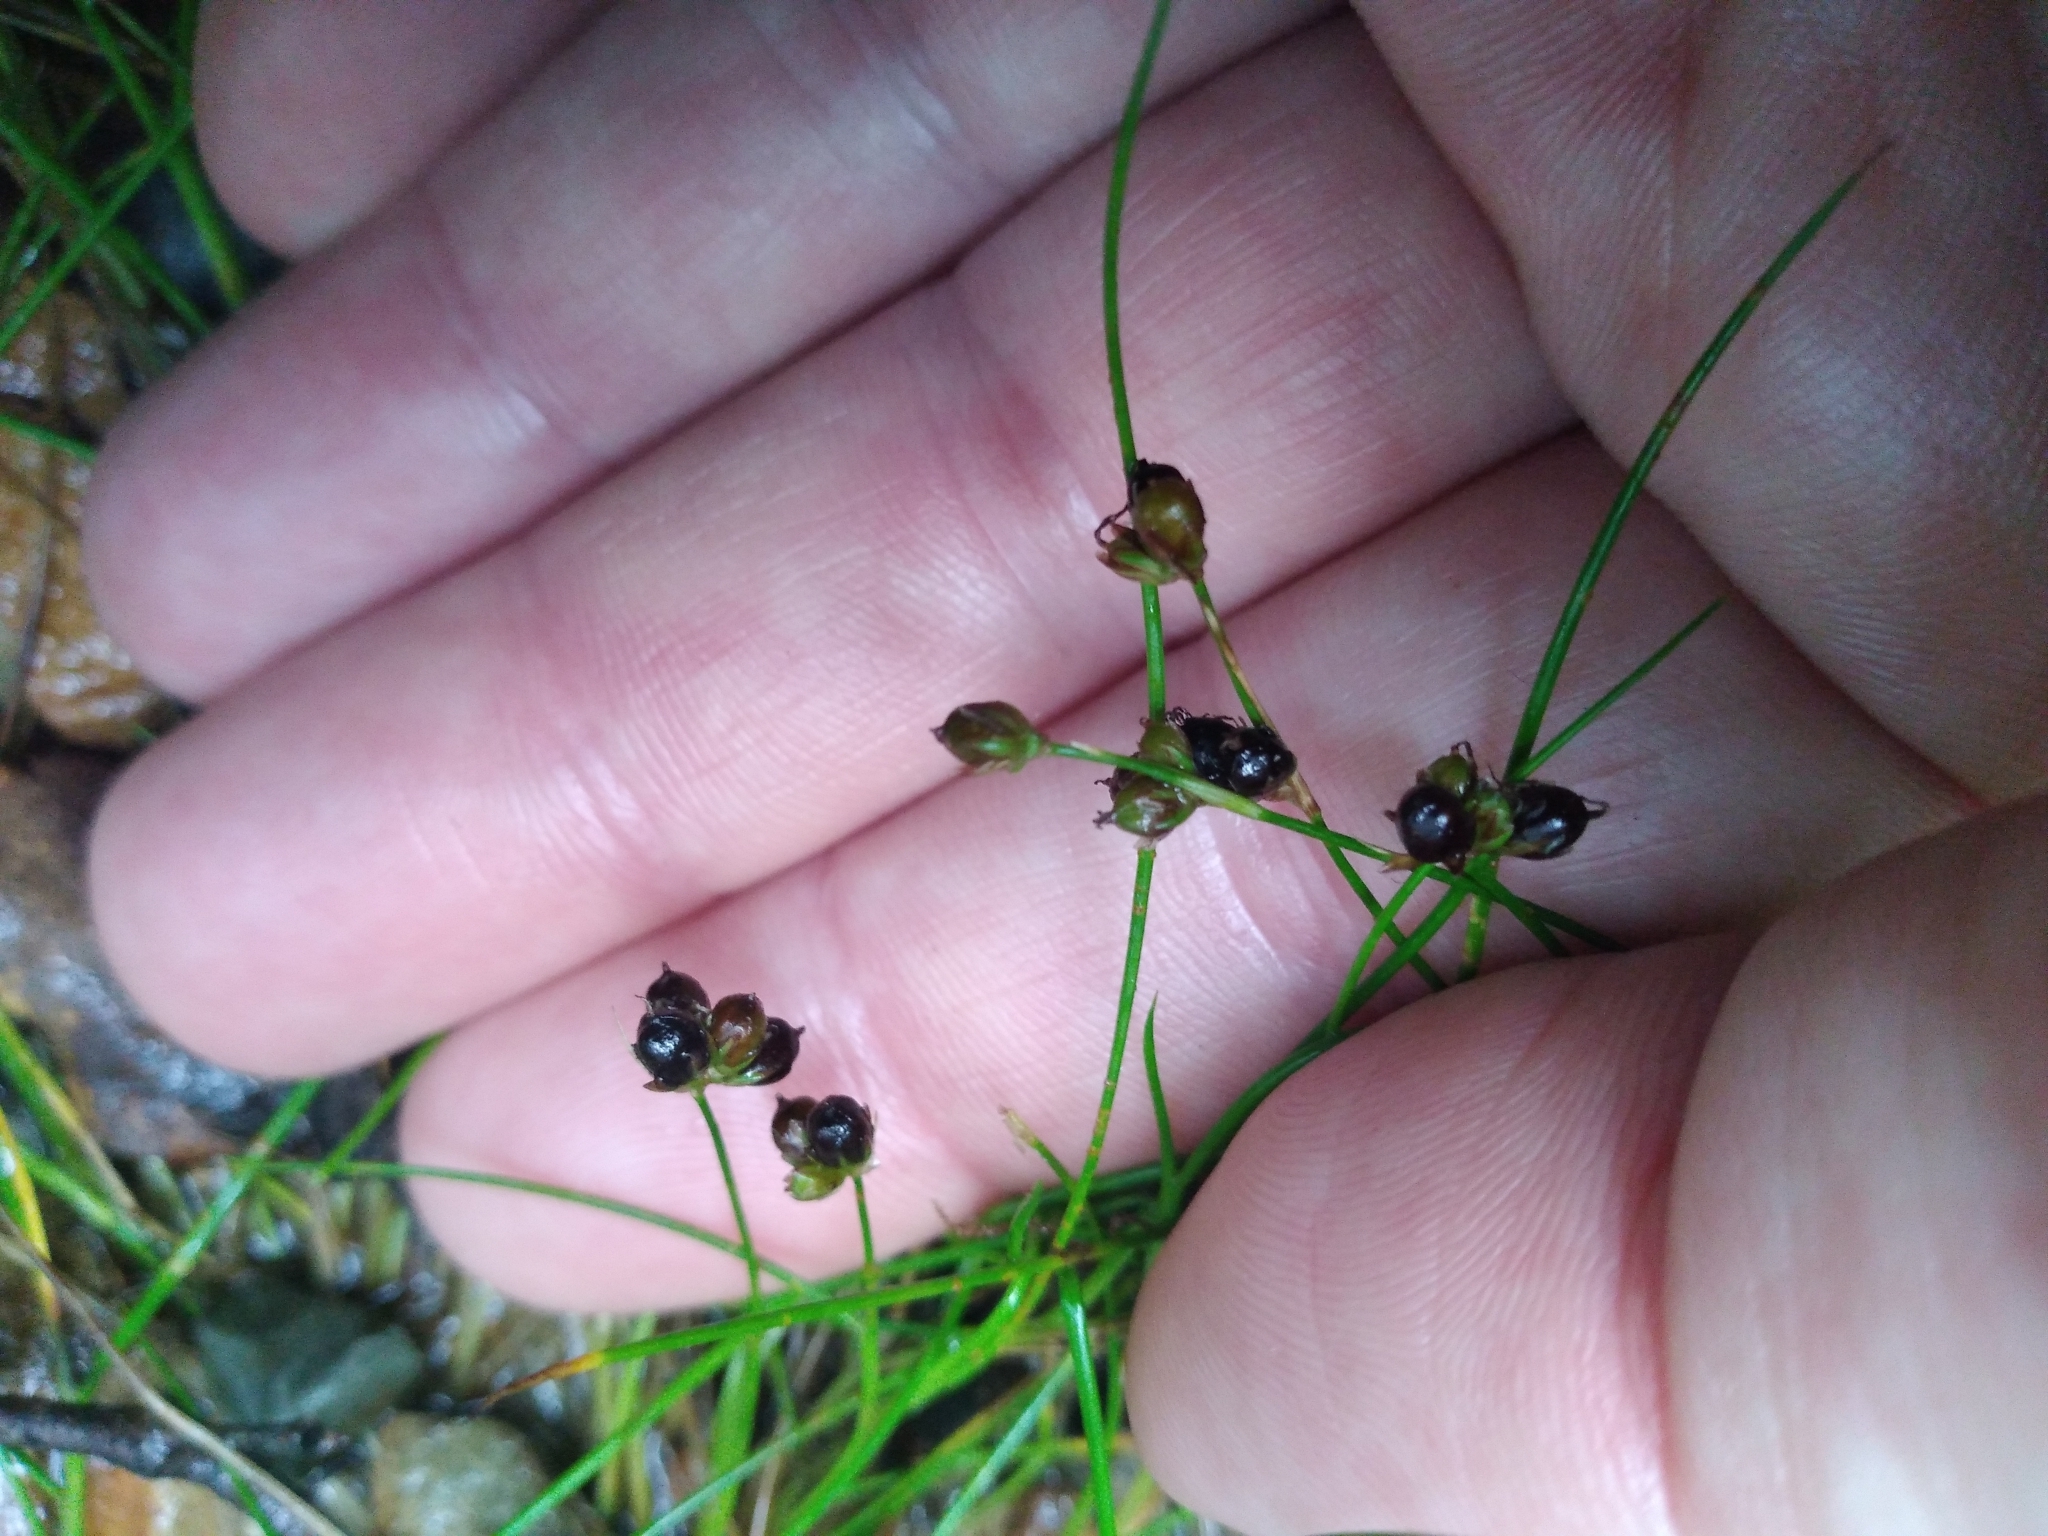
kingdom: Plantae
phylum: Tracheophyta
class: Liliopsida
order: Poales
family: Juncaceae
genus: Juncus
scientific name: Juncus novae-zelandiae
